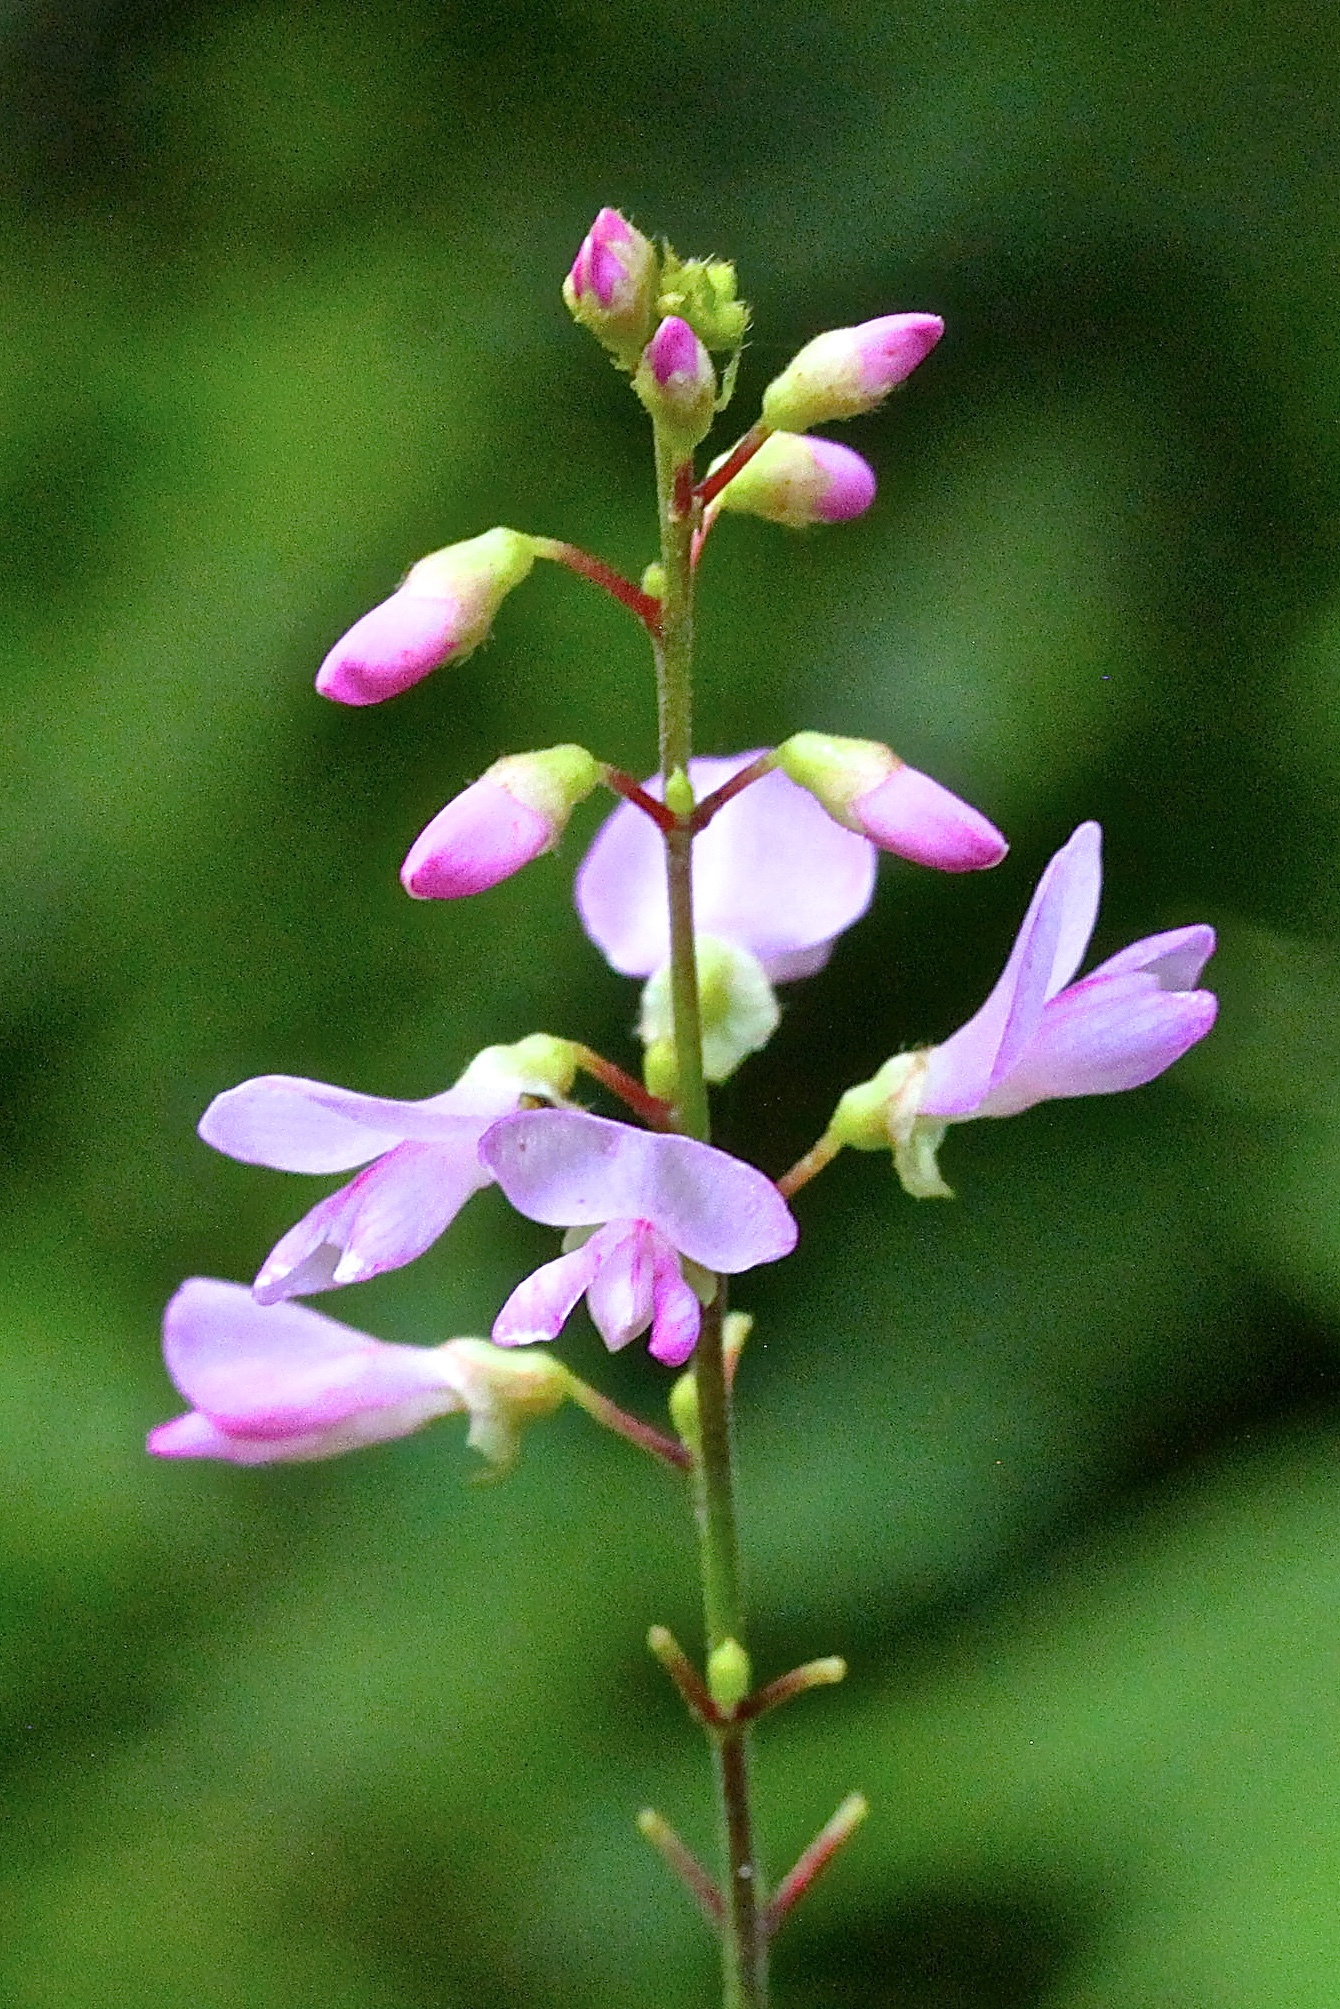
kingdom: Plantae
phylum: Tracheophyta
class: Magnoliopsida
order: Fabales
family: Fabaceae
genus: Hylodesmum
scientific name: Hylodesmum glutinosum
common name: Clustered-leaved tick-trefoil
